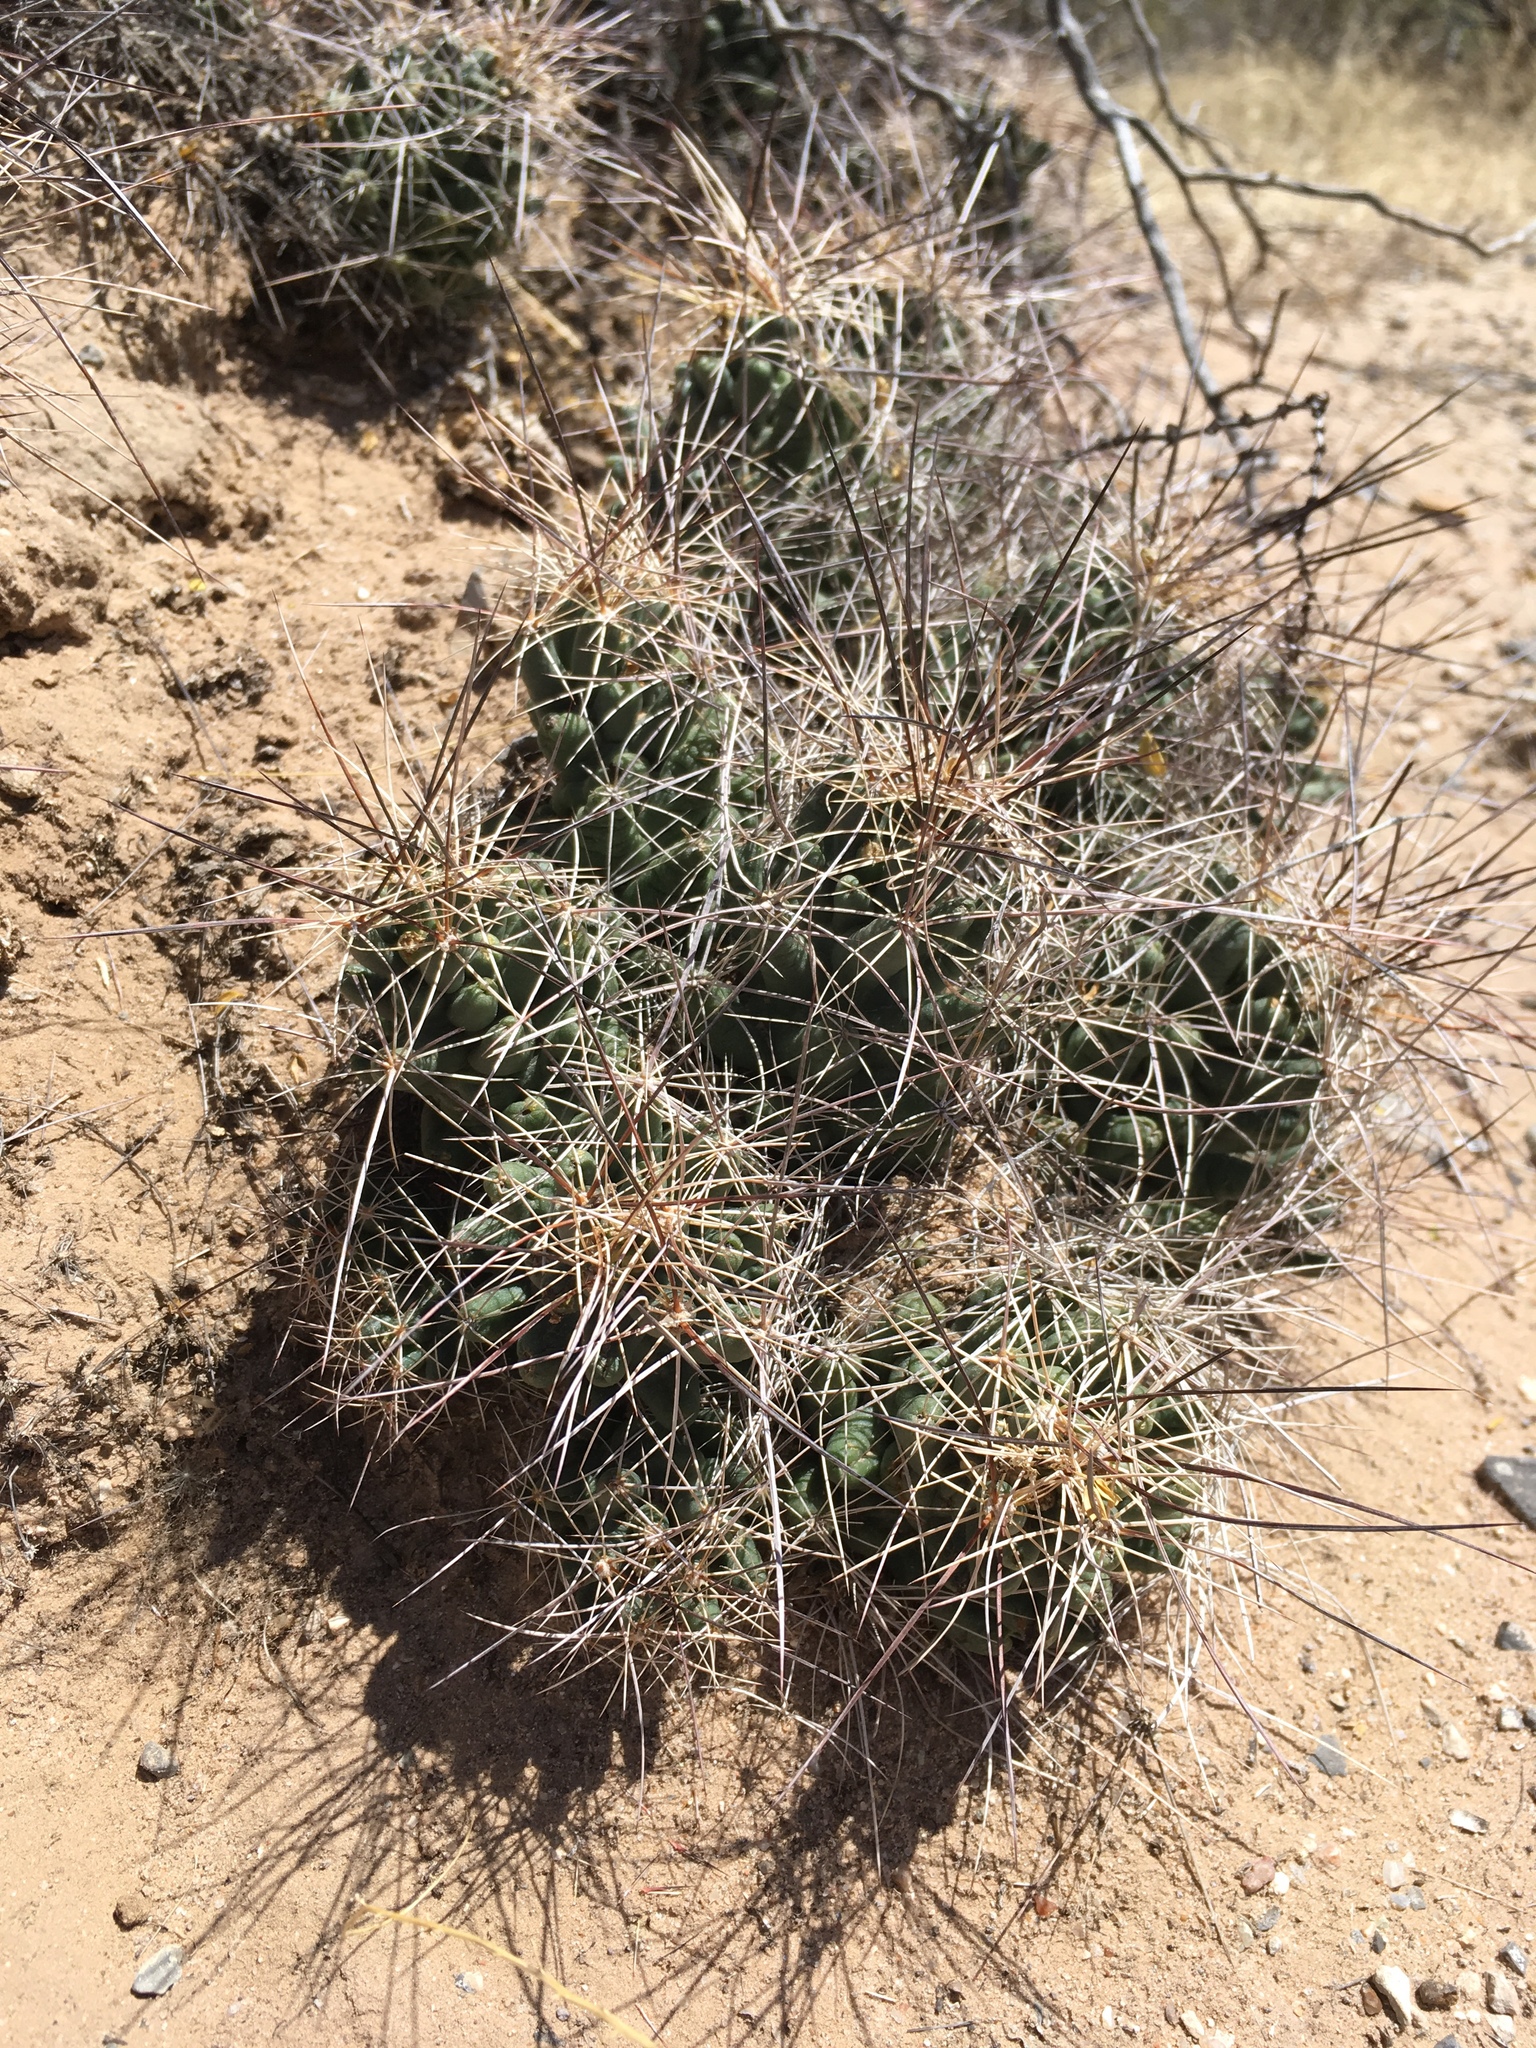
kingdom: Plantae
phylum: Tracheophyta
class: Magnoliopsida
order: Caryophyllales
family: Cactaceae
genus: Coryphantha
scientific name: Coryphantha macromeris
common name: Nipple beehive cactus
